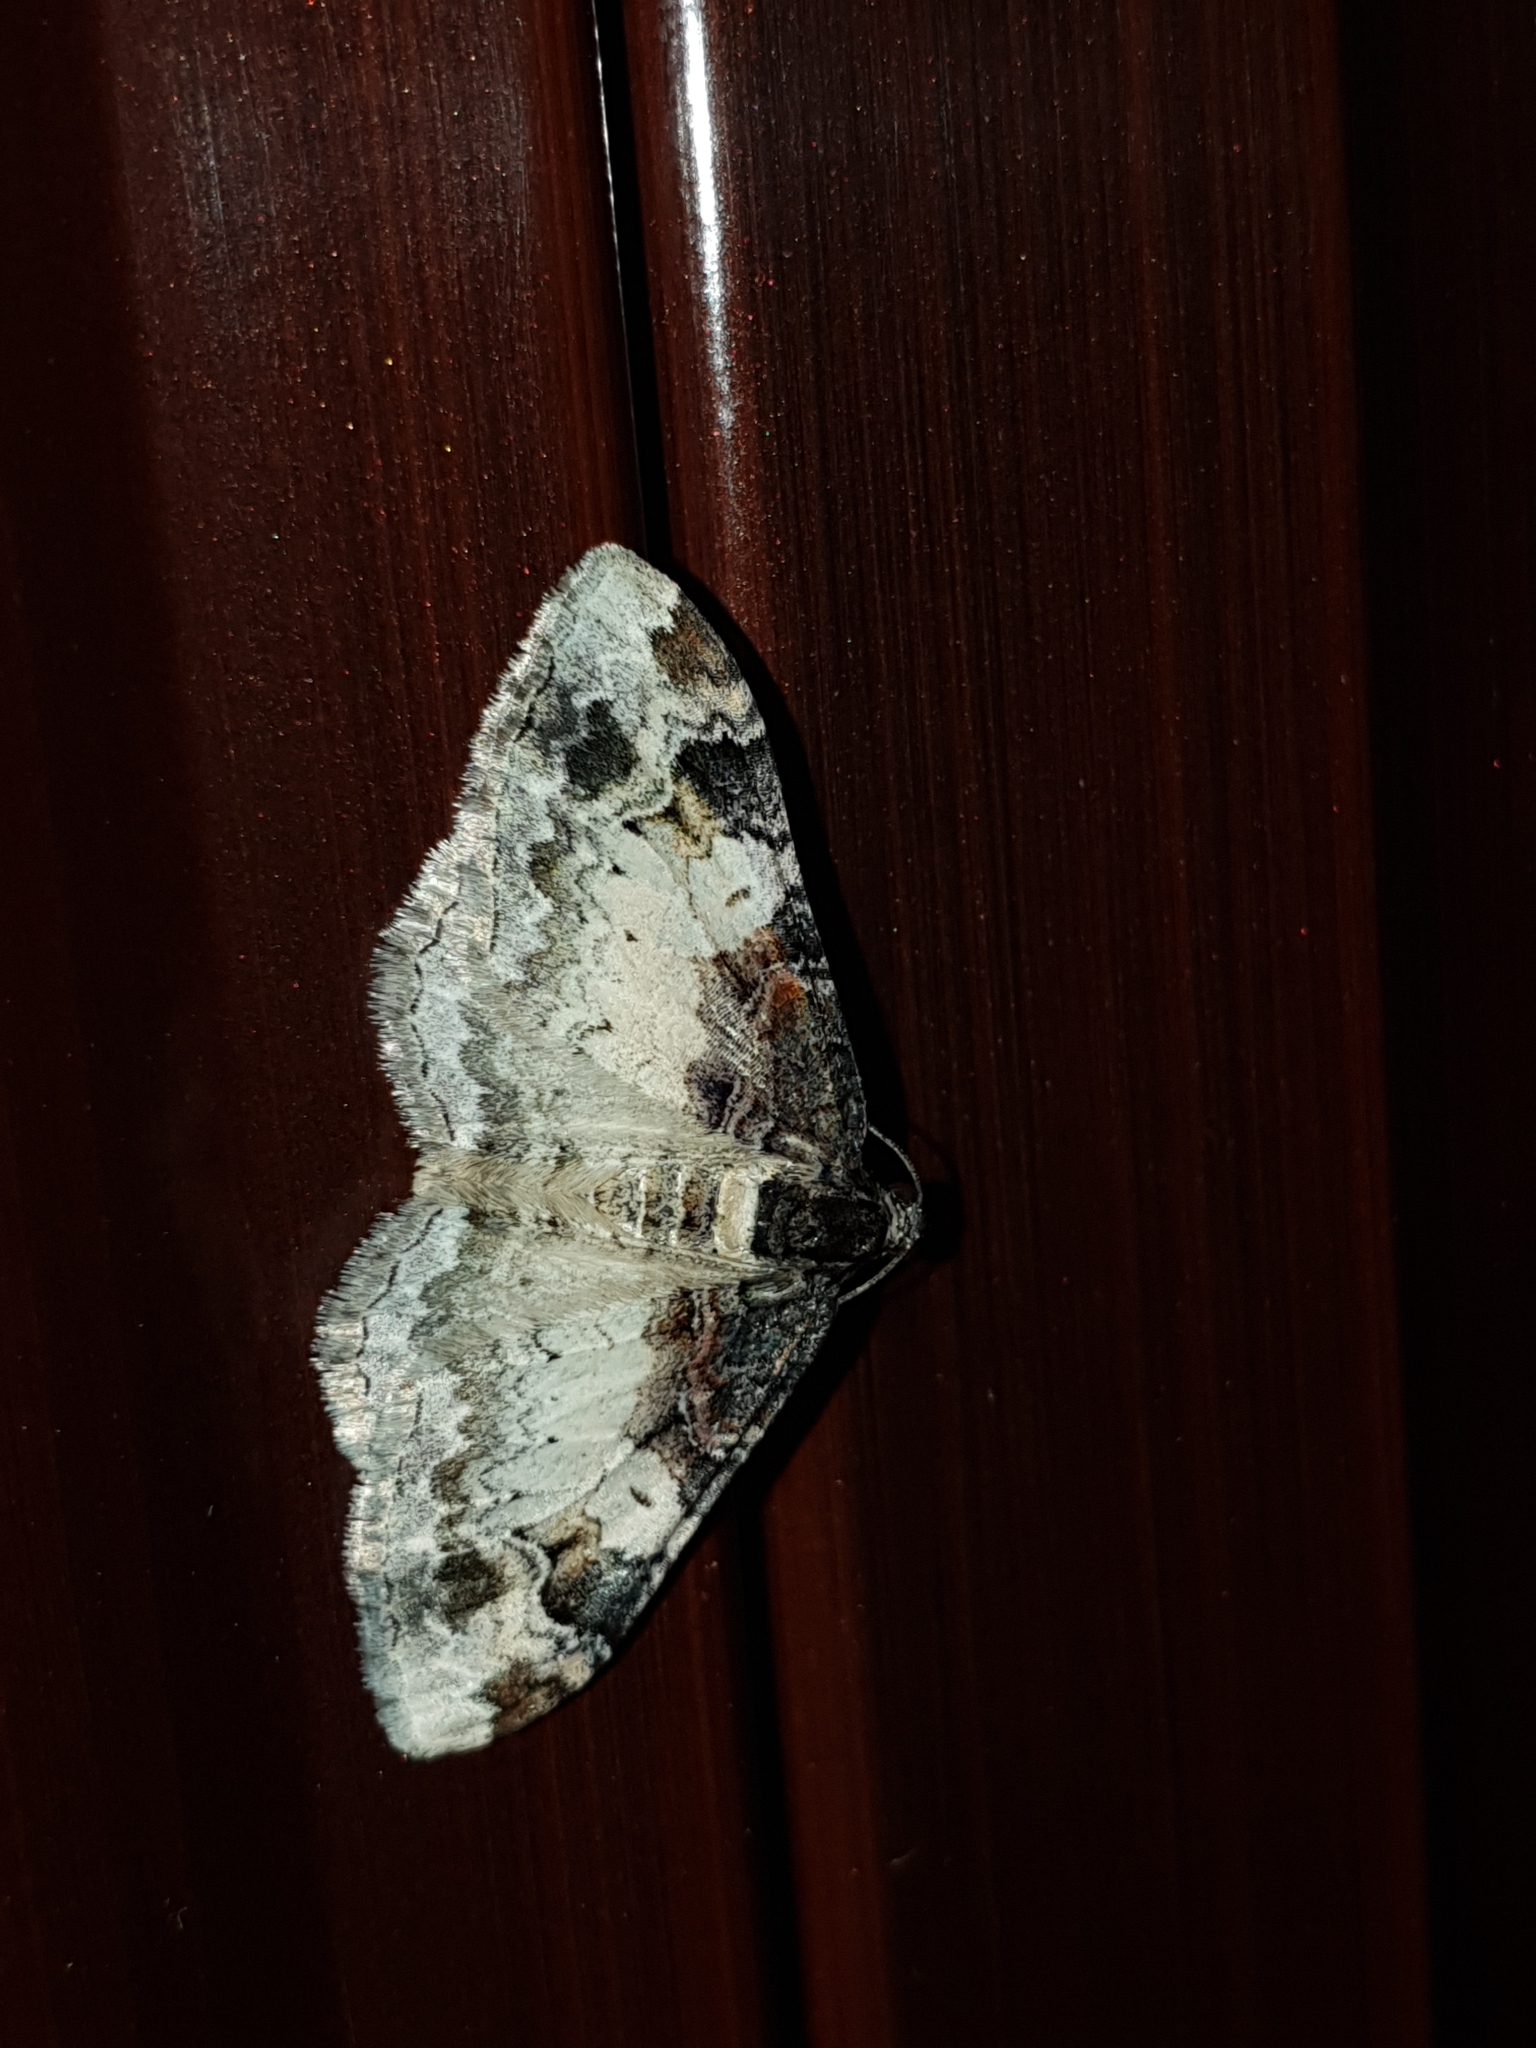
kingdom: Animalia
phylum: Arthropoda
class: Insecta
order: Lepidoptera
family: Geometridae
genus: Catarhoe
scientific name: Catarhoe cuculata
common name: Royal mantle
